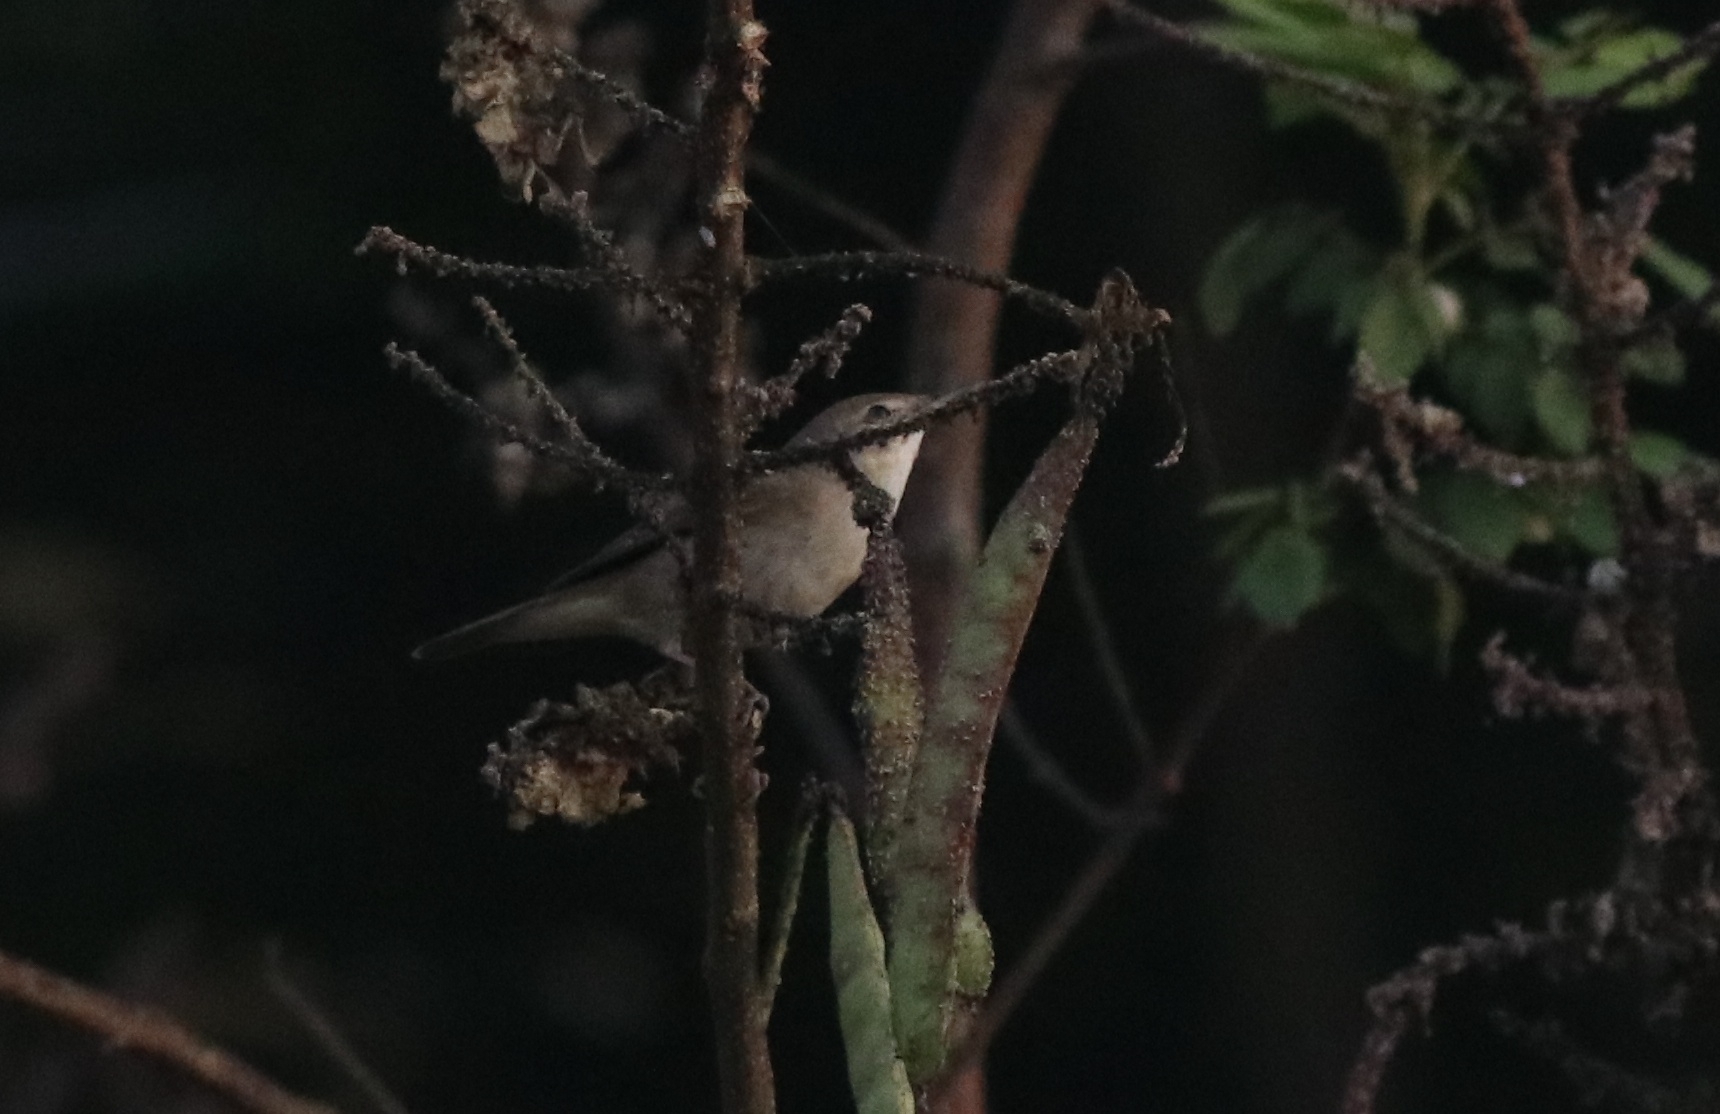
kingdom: Animalia
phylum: Chordata
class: Aves
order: Passeriformes
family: Acrocephalidae
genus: Acrocephalus
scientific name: Acrocephalus dumetorum
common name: Blyth's reed warbler
